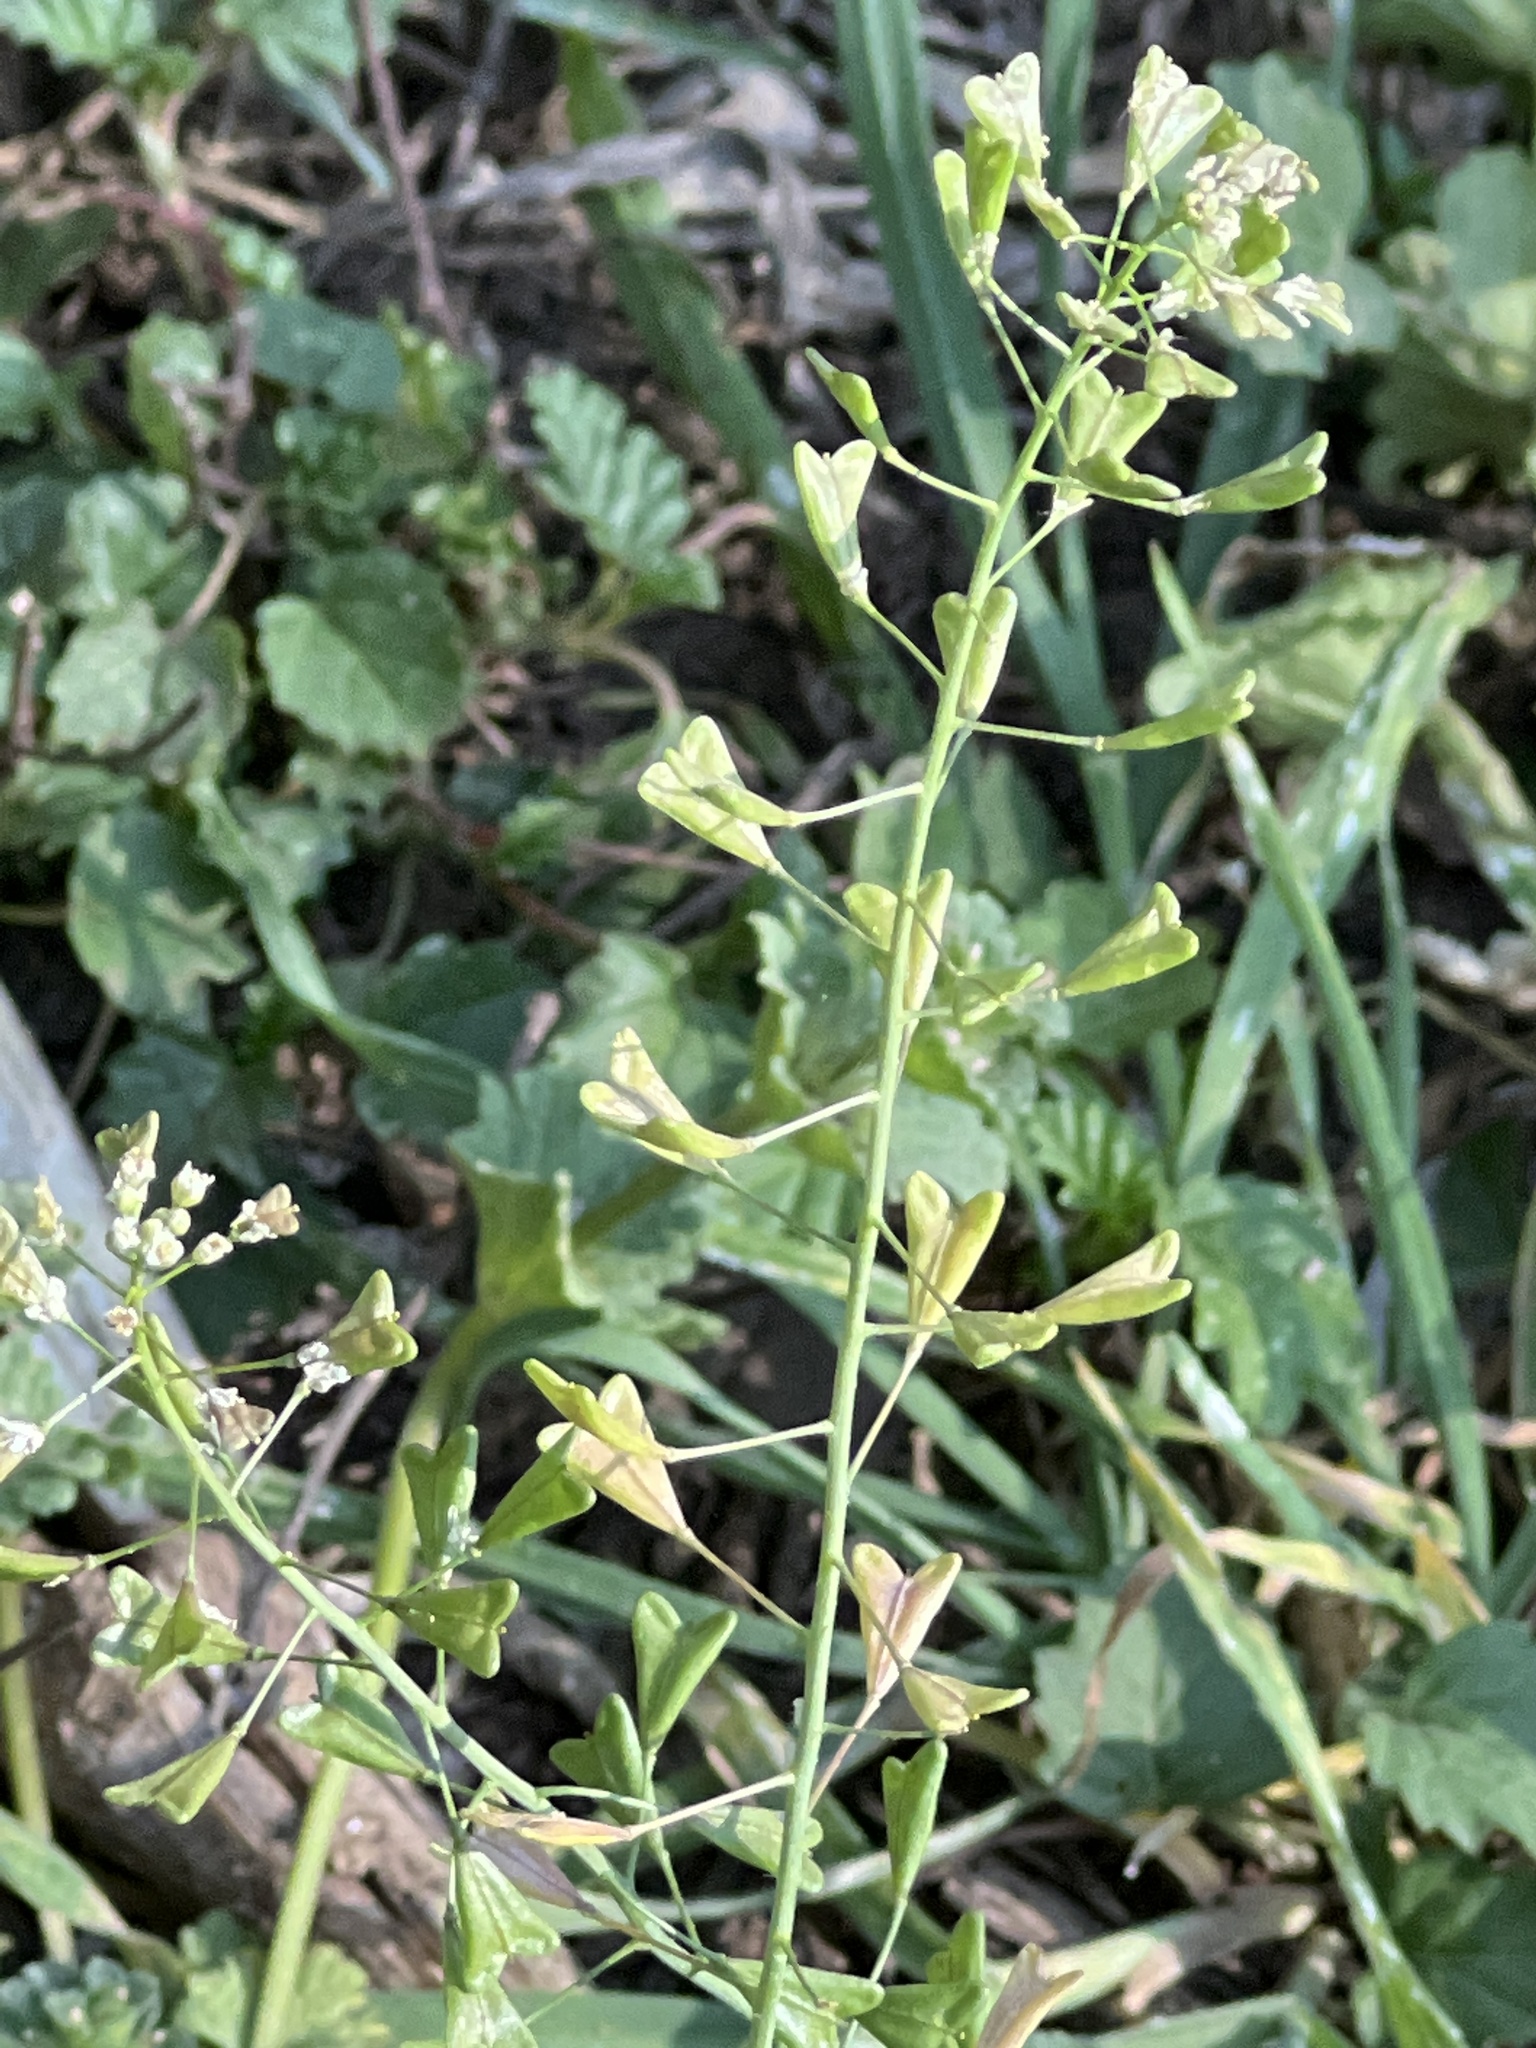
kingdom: Plantae
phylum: Tracheophyta
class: Magnoliopsida
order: Brassicales
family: Brassicaceae
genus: Capsella
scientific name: Capsella bursa-pastoris
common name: Shepherd's purse
